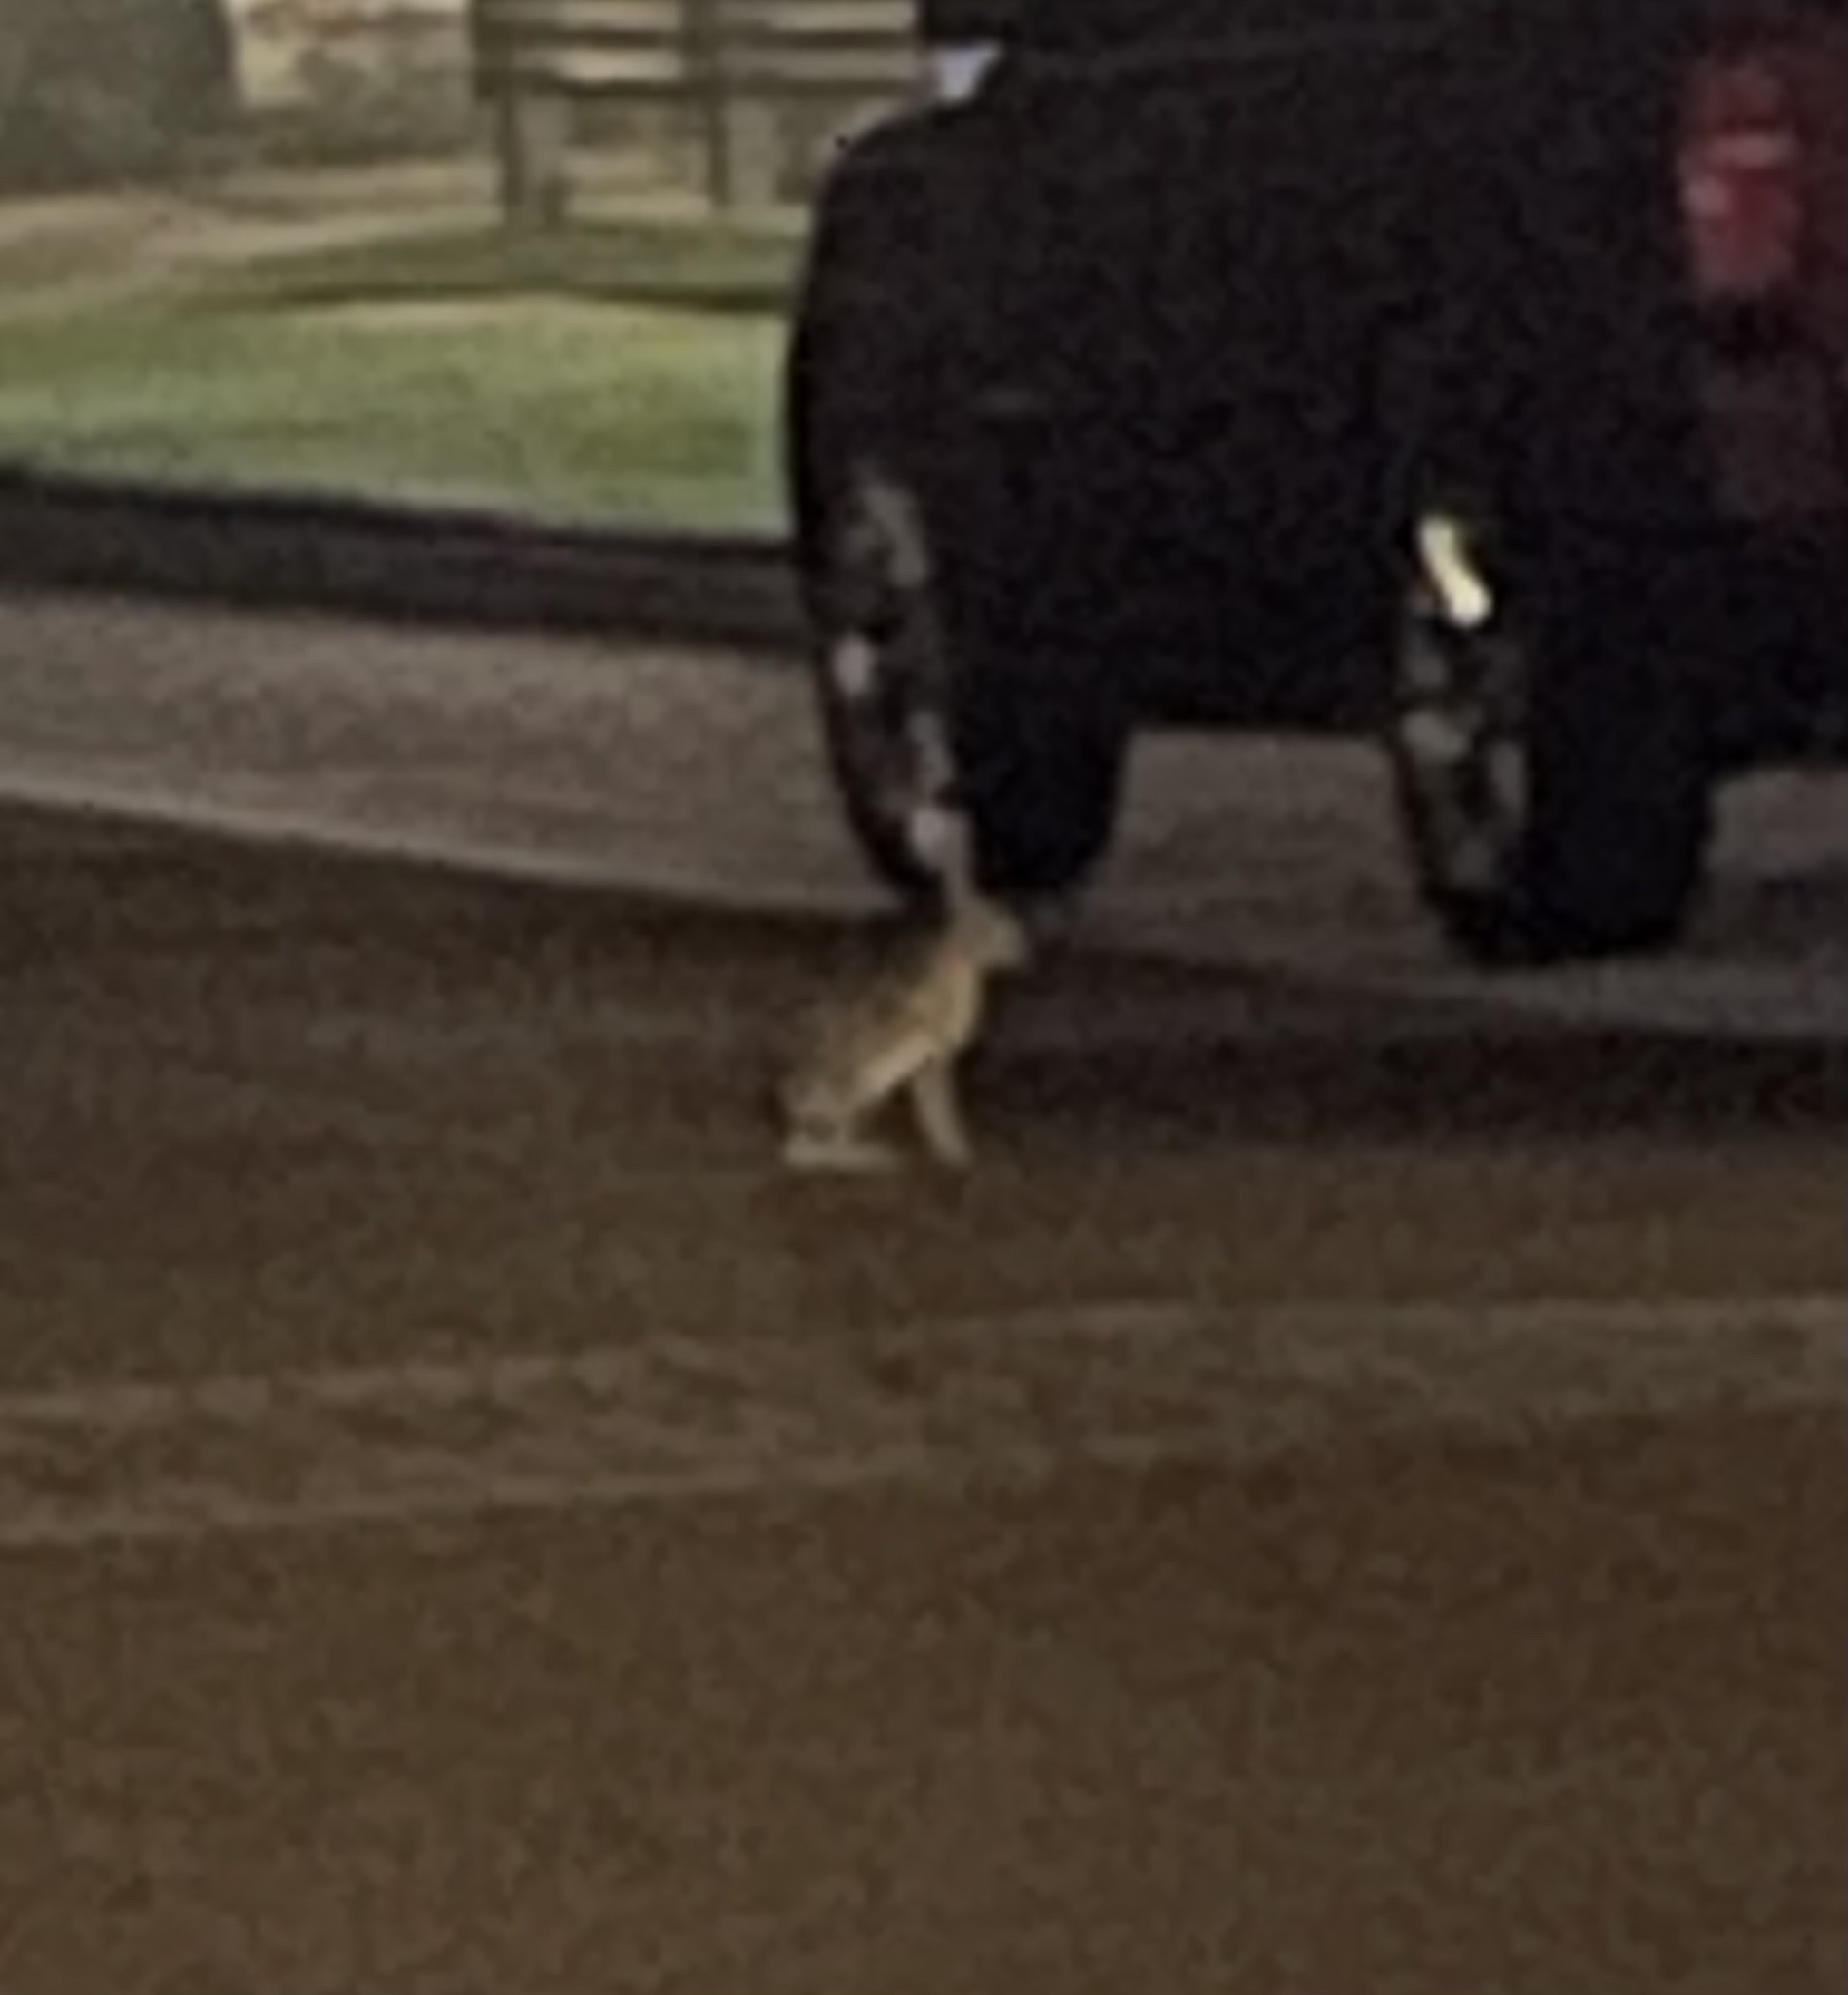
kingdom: Animalia
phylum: Chordata
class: Mammalia
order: Lagomorpha
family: Leporidae
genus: Lepus
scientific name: Lepus californicus
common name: Black-tailed jackrabbit
